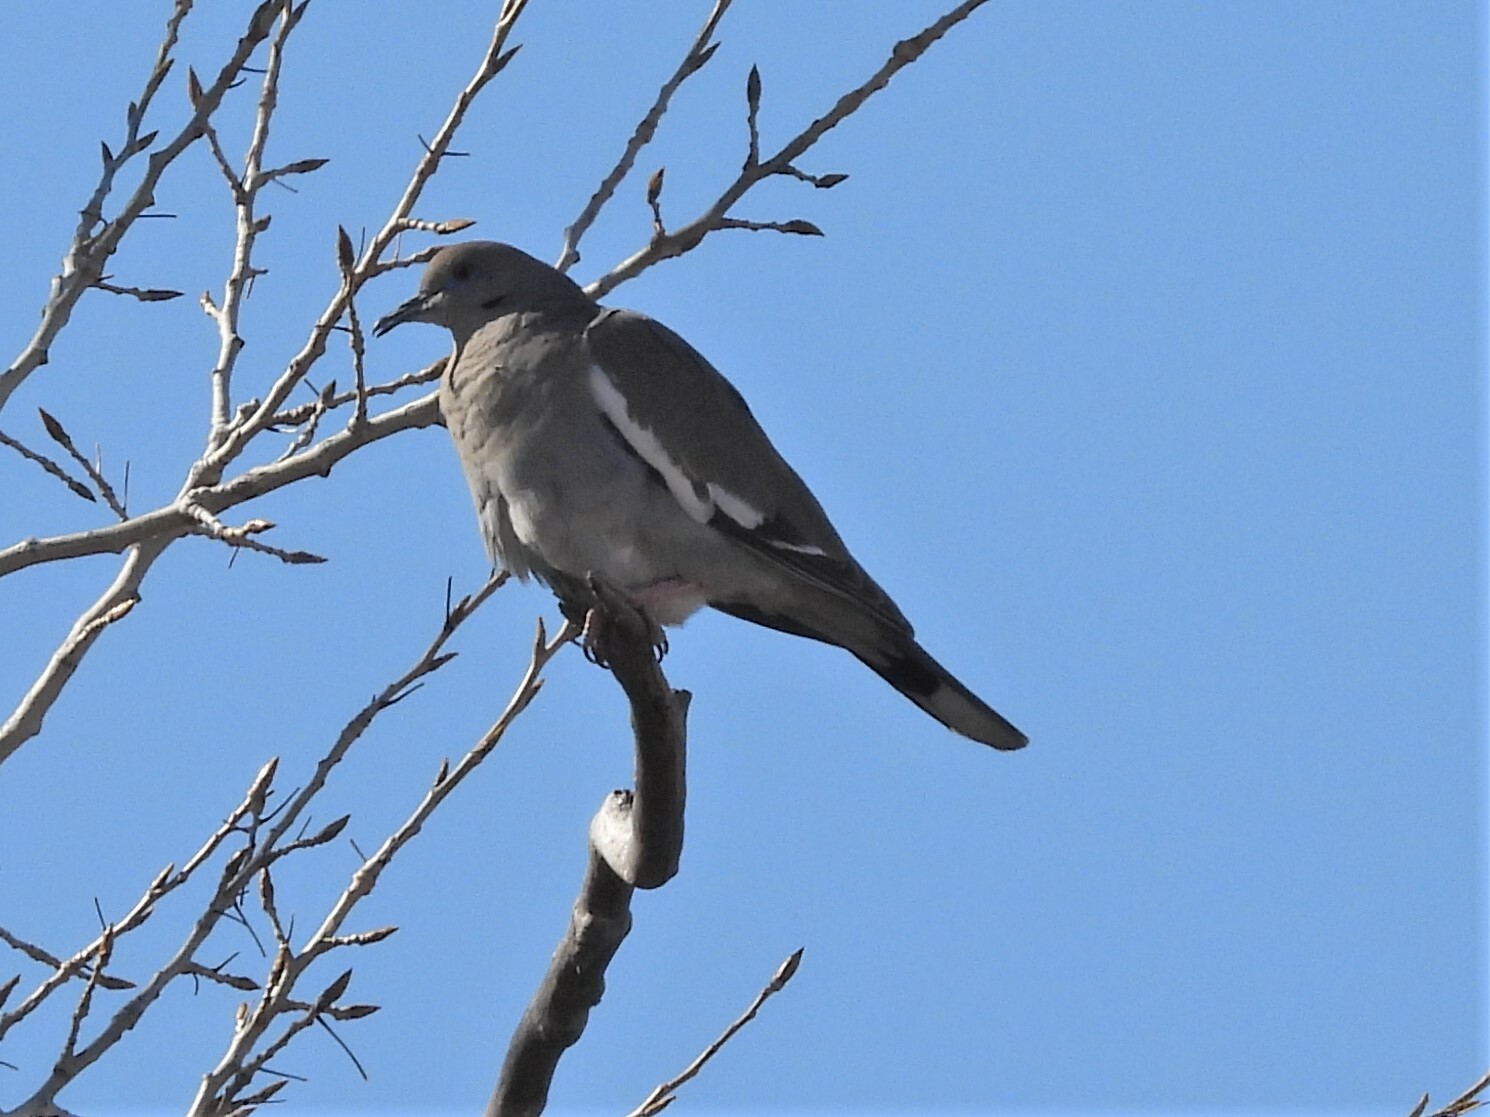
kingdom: Animalia
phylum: Chordata
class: Aves
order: Columbiformes
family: Columbidae
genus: Zenaida
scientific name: Zenaida asiatica
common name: White-winged dove
